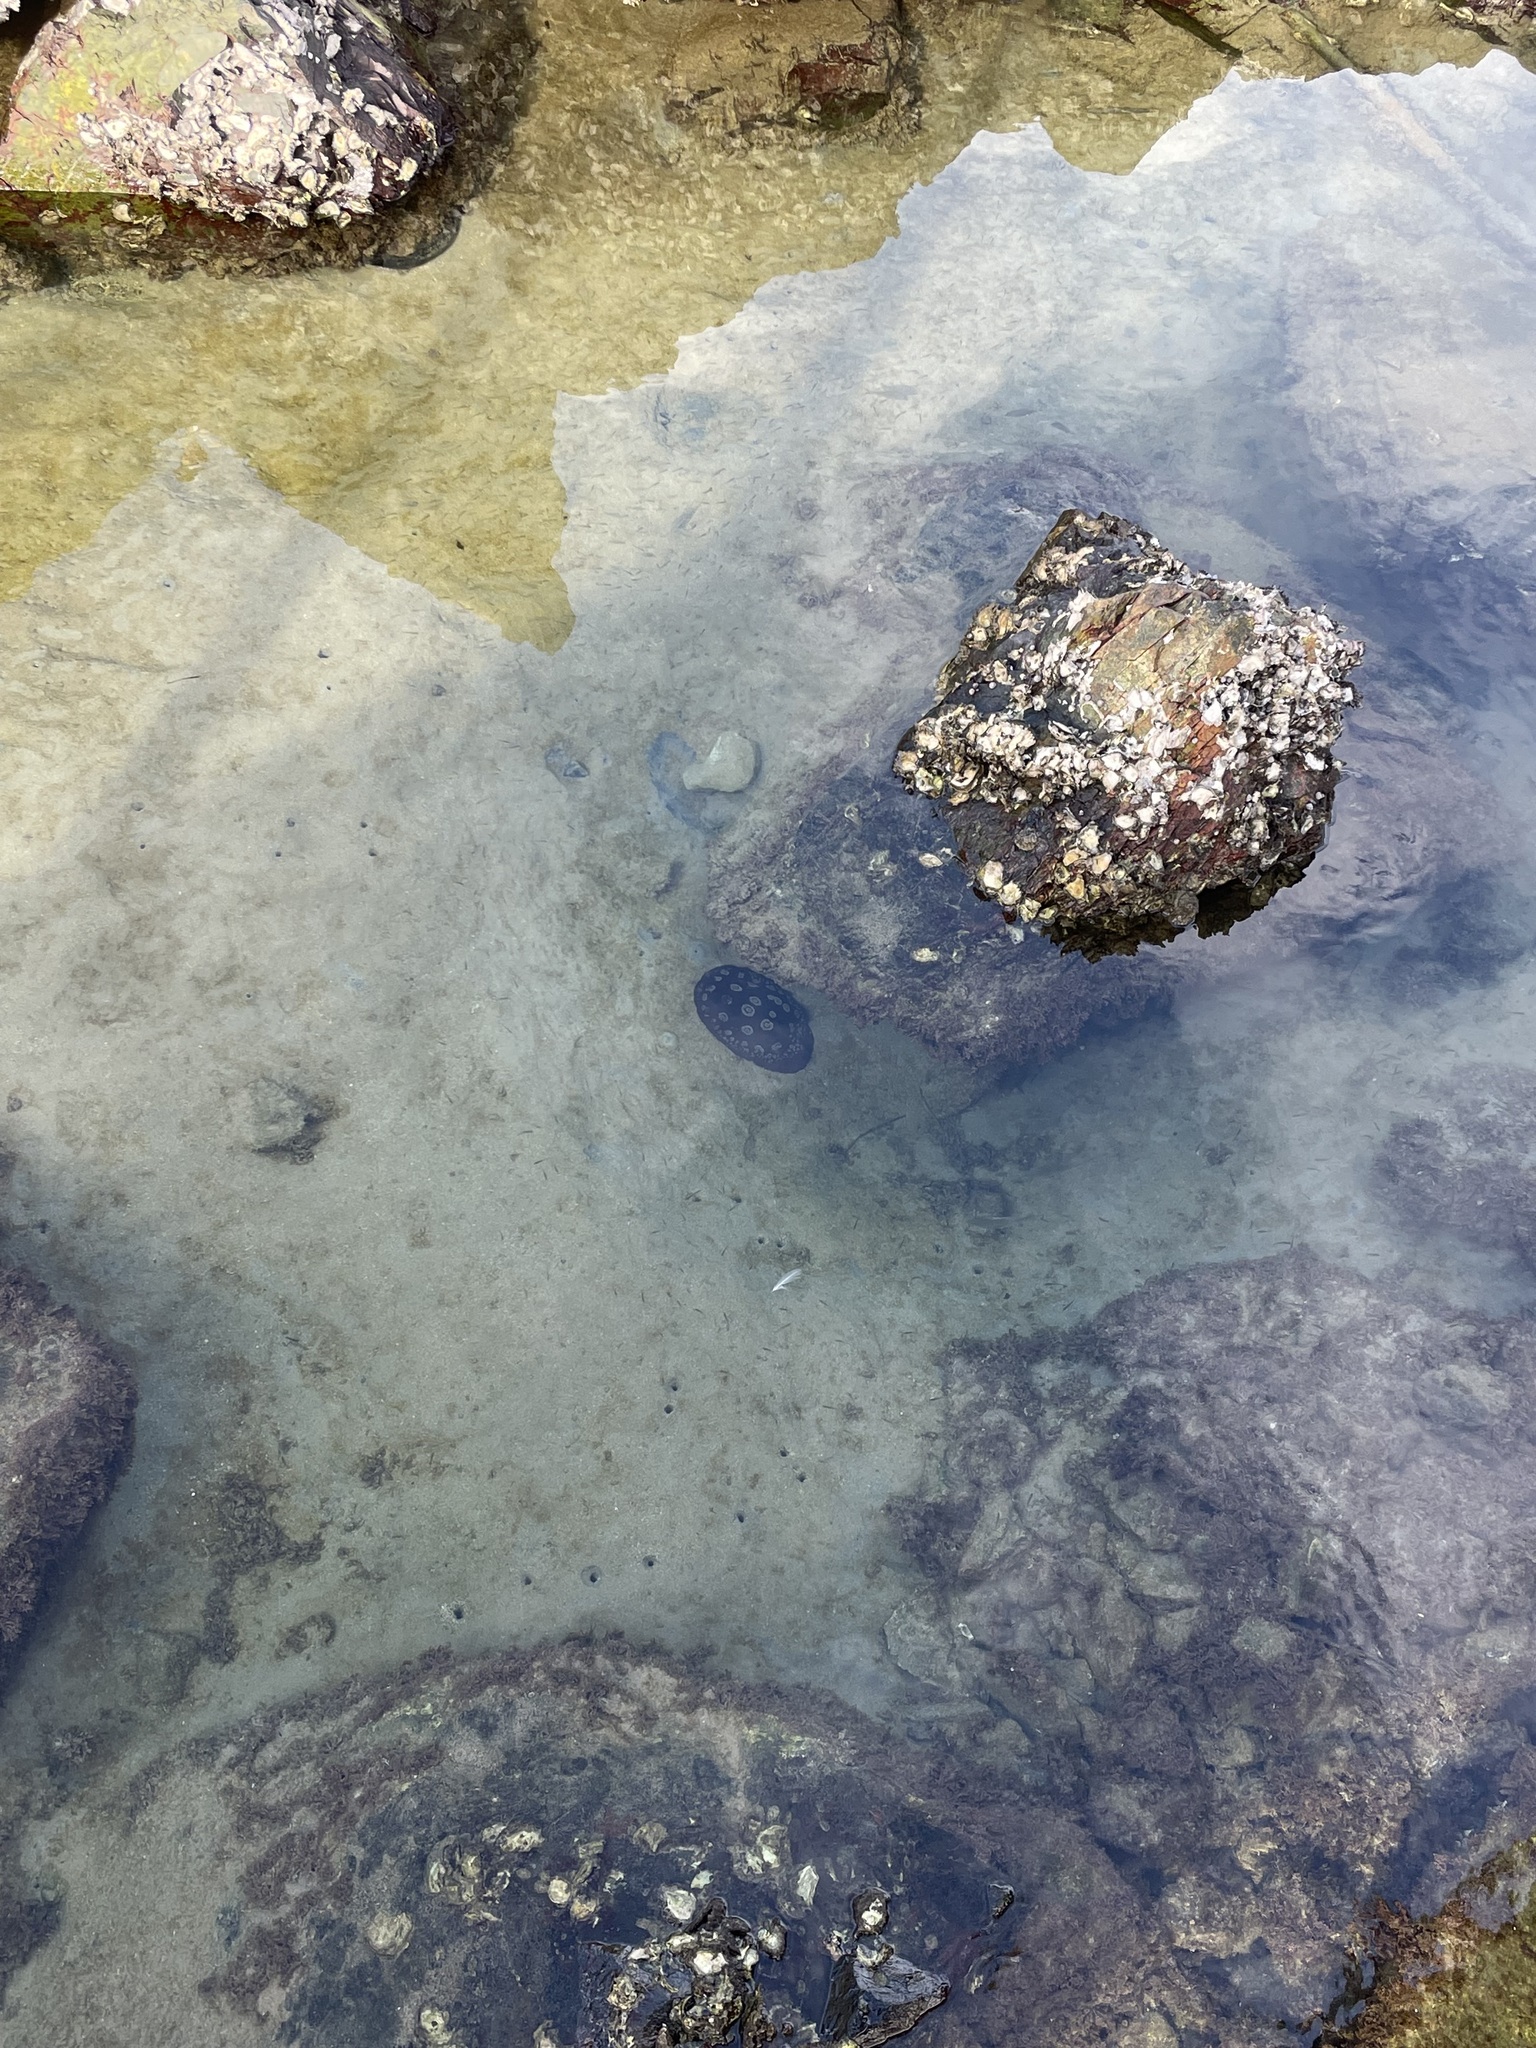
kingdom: Animalia
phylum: Mollusca
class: Gastropoda
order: Pleurobranchida
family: Pleurobranchidae
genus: Pleurobranchus
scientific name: Pleurobranchus weberi
